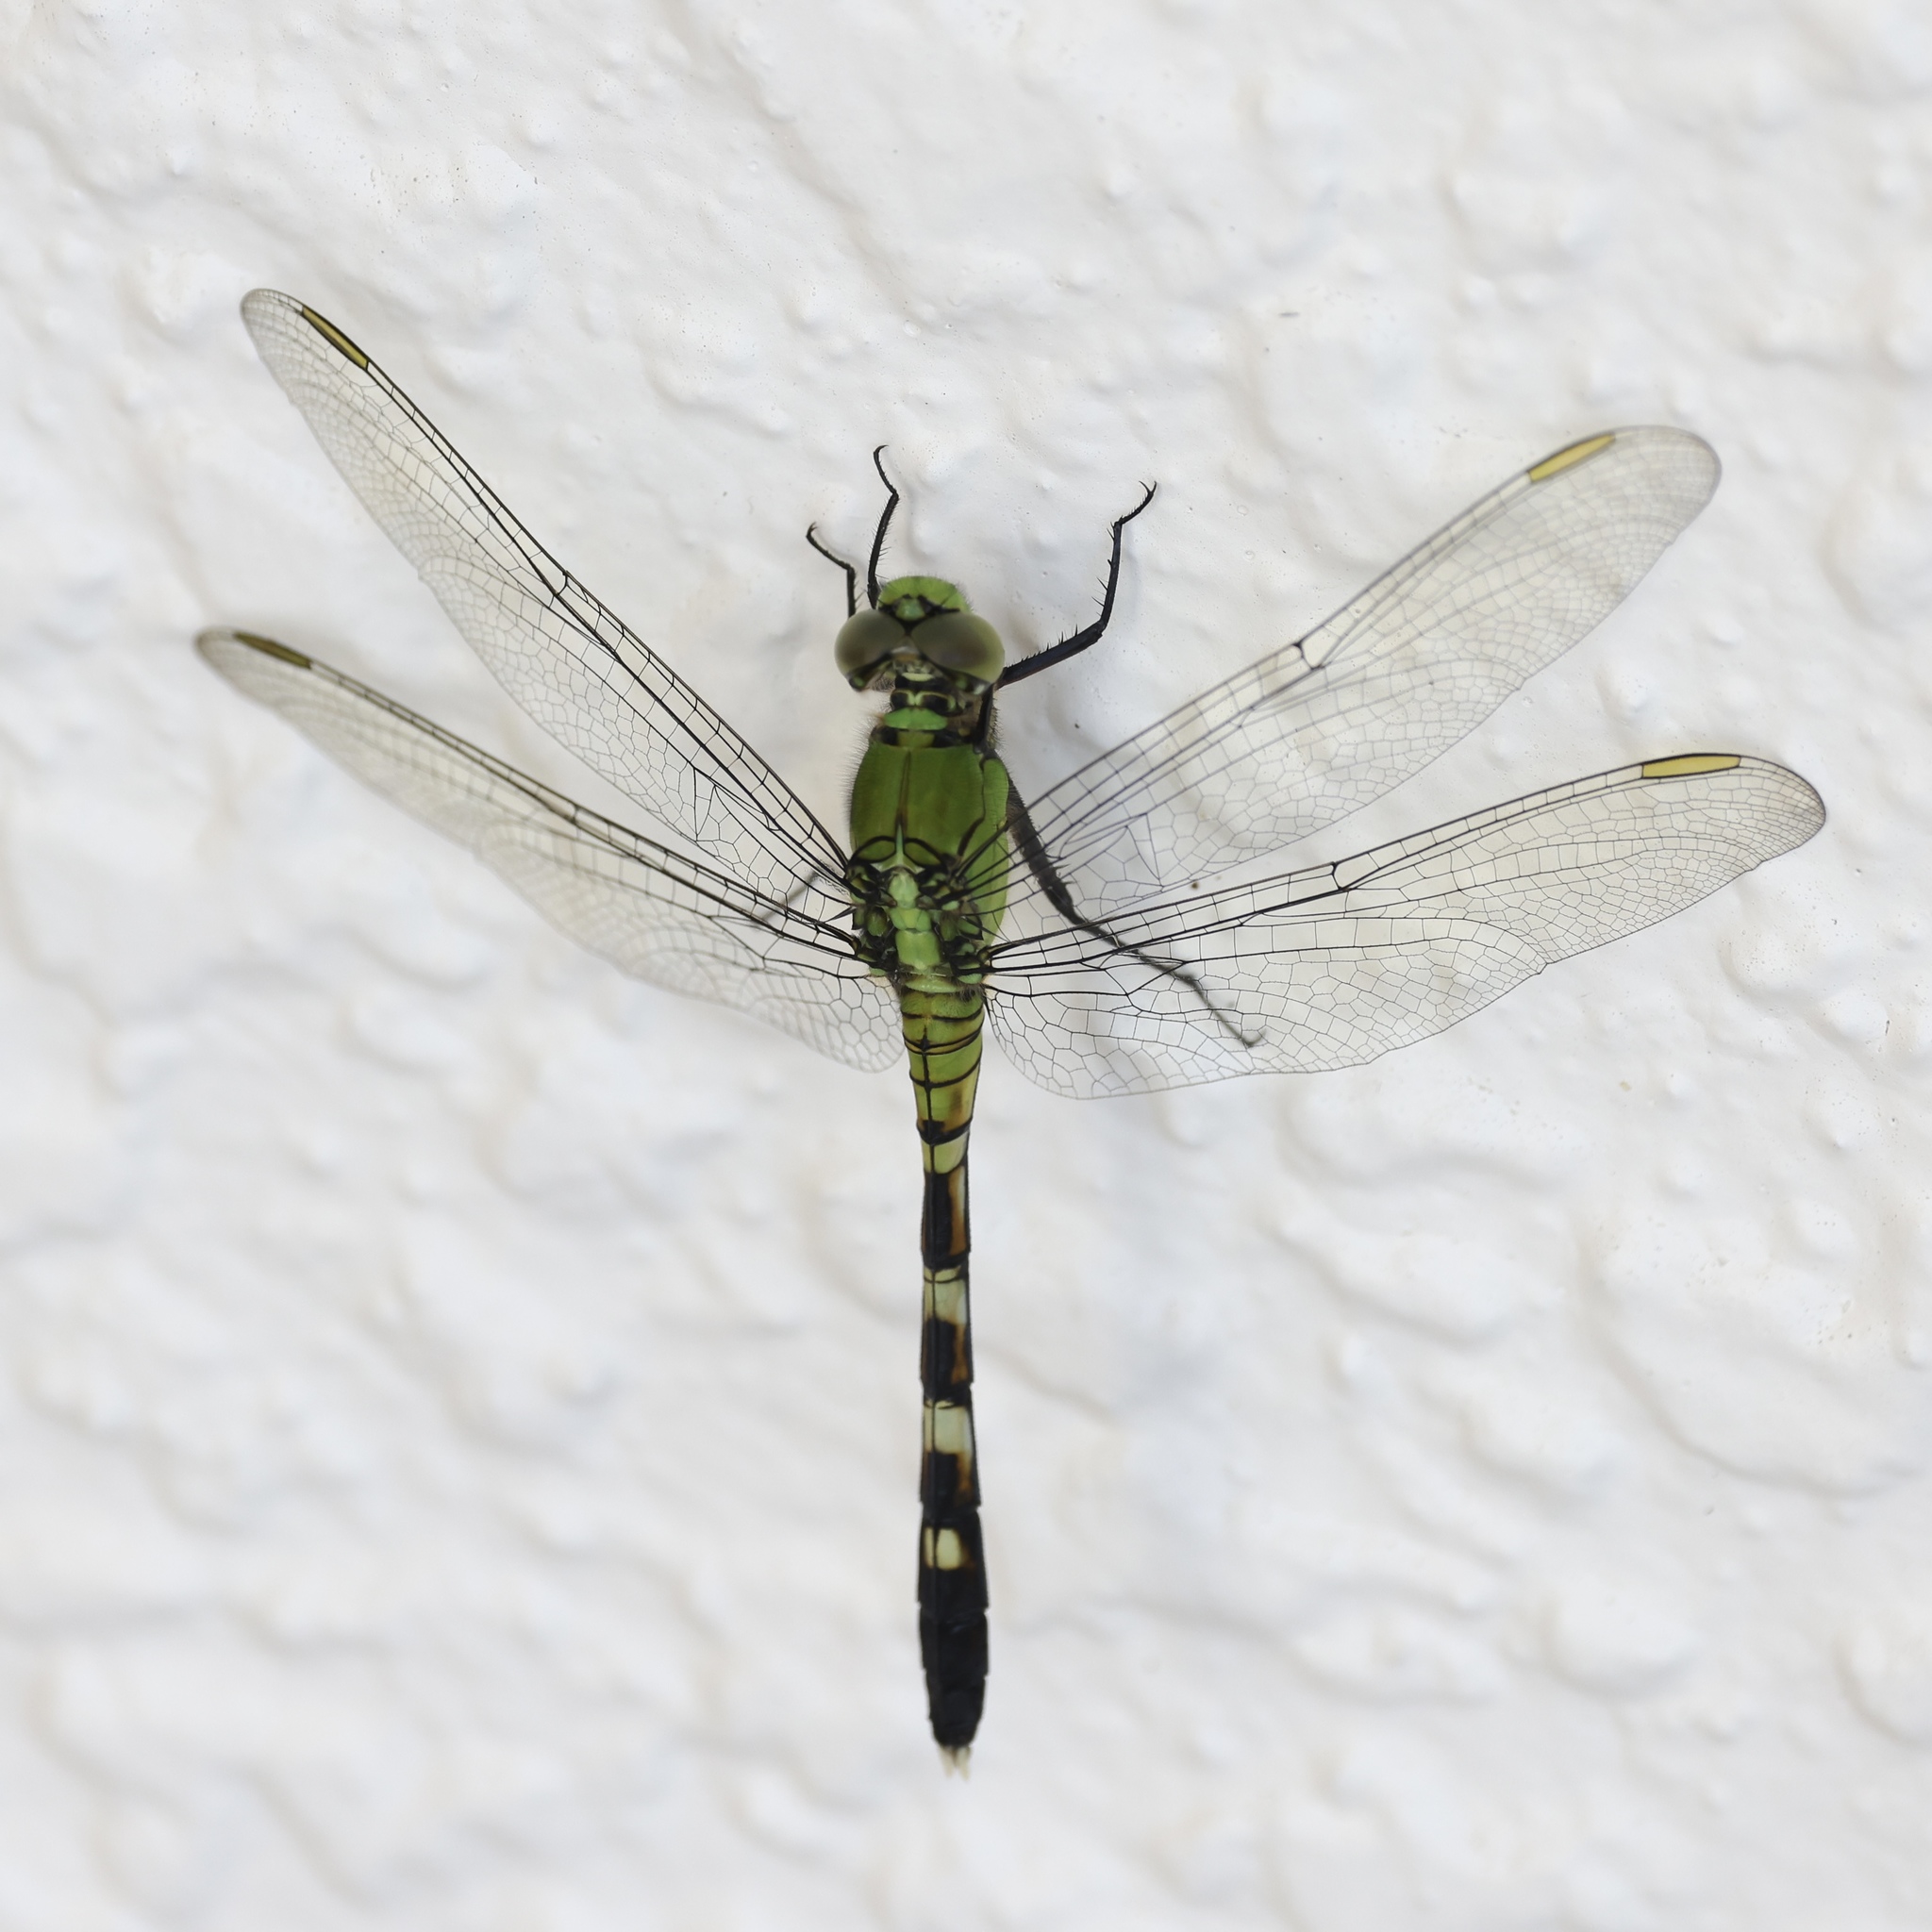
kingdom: Animalia
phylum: Arthropoda
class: Insecta
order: Odonata
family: Libellulidae
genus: Erythemis
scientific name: Erythemis simplicicollis
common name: Eastern pondhawk
